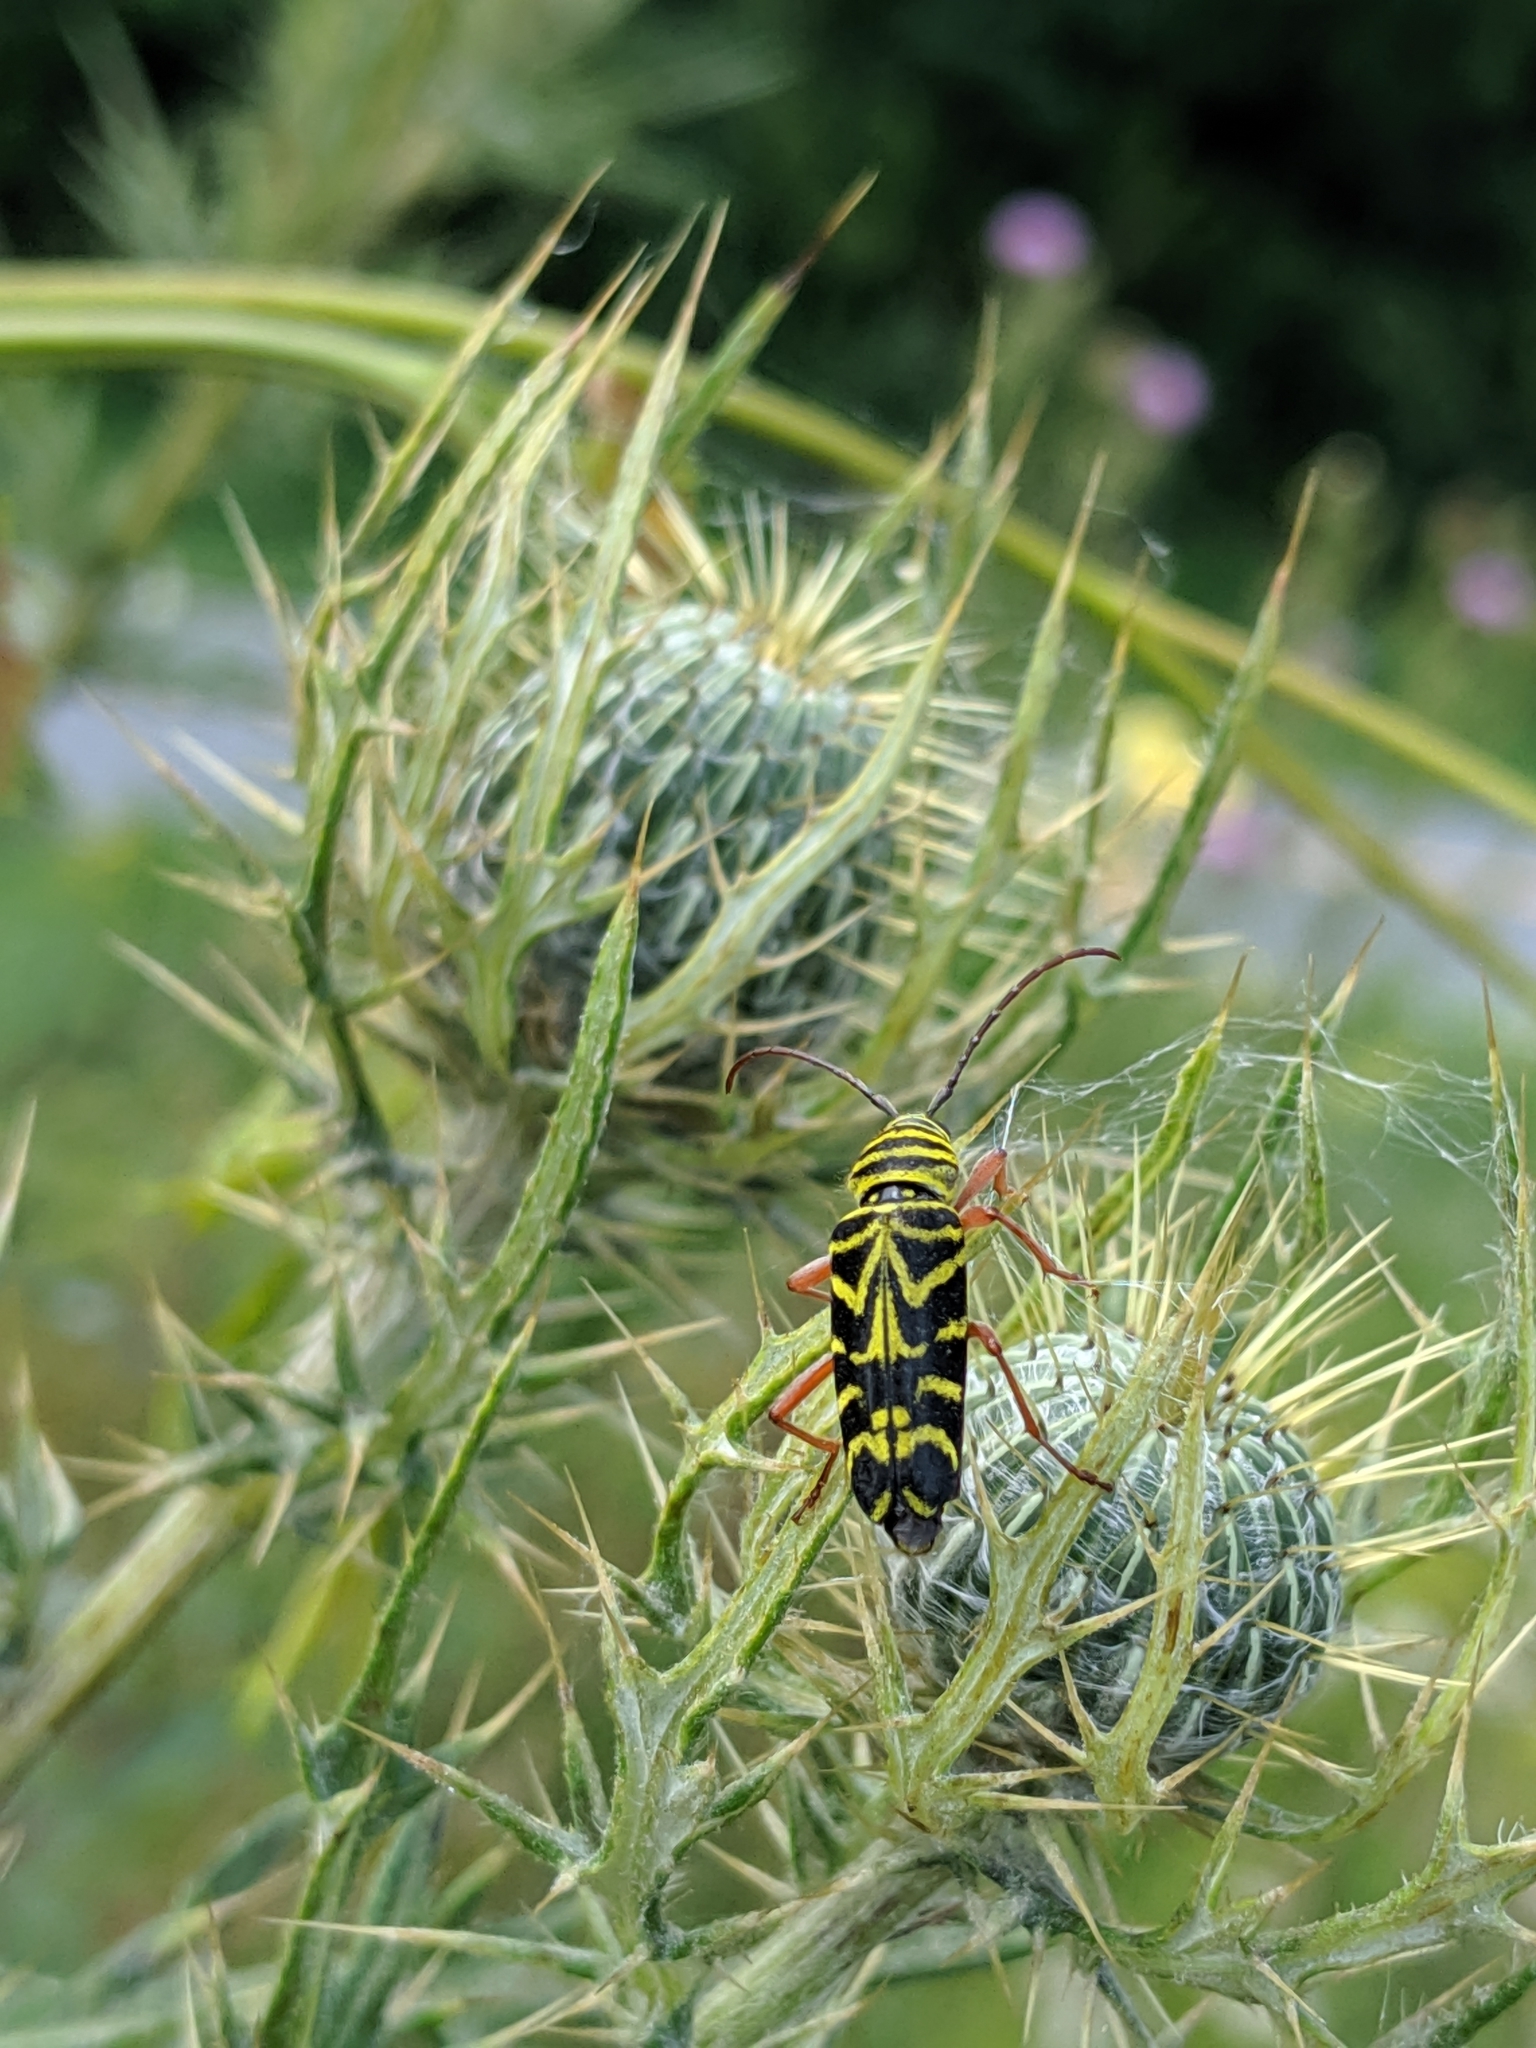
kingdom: Animalia
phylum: Arthropoda
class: Insecta
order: Coleoptera
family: Cerambycidae
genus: Megacyllene
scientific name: Megacyllene robiniae
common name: Locust borer
